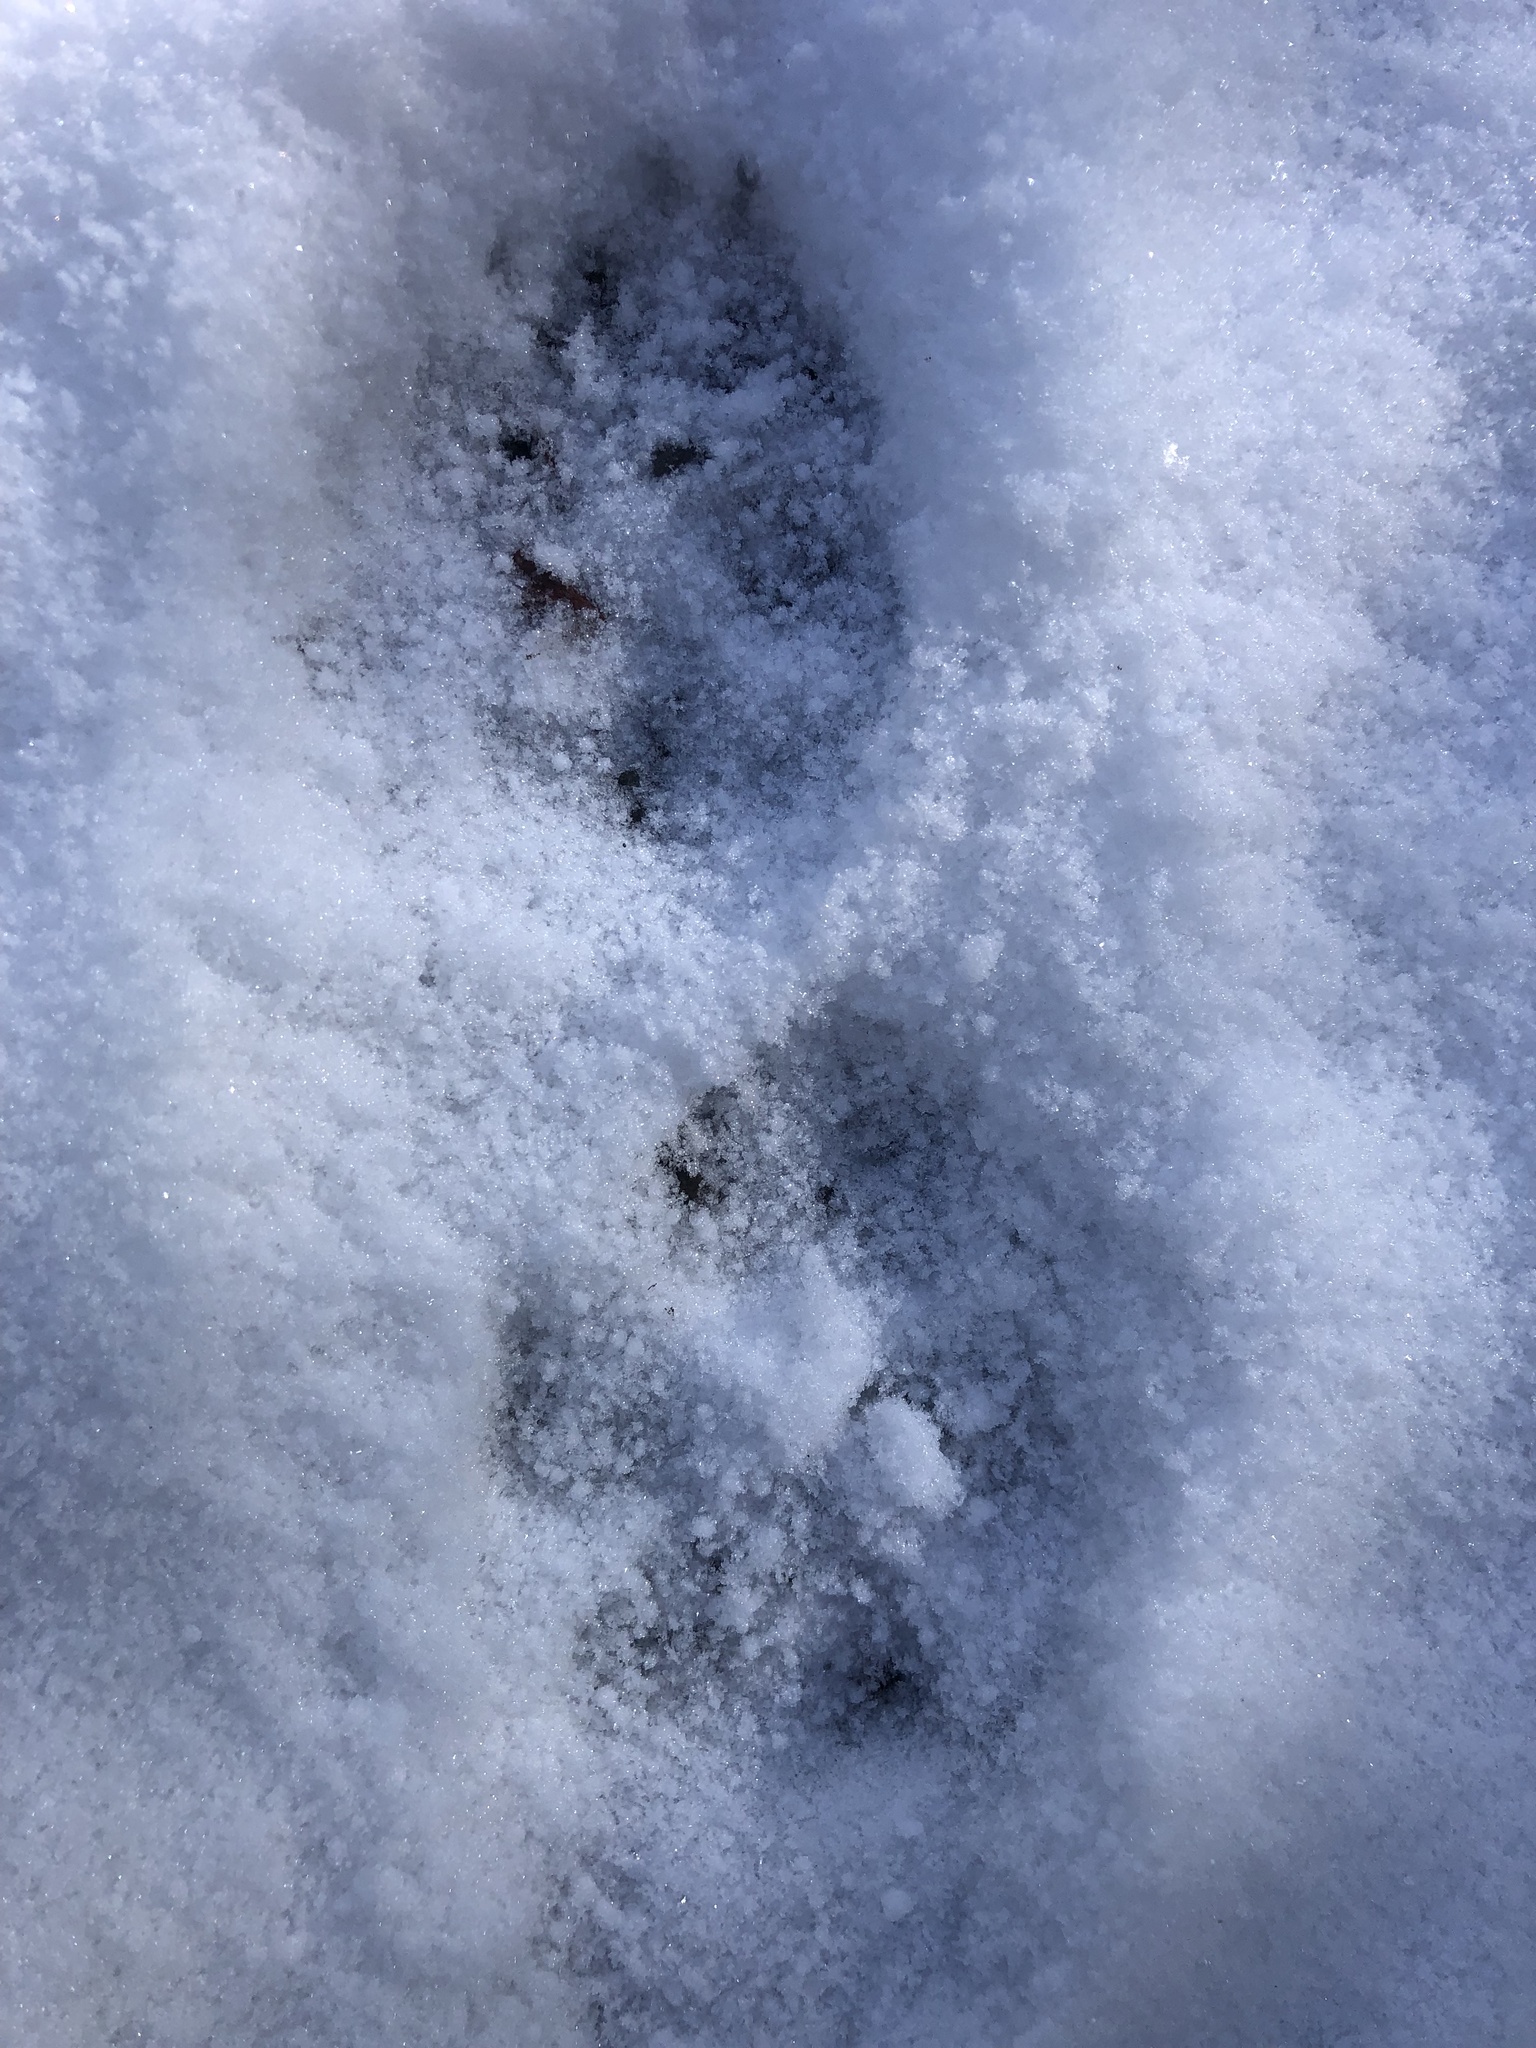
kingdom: Animalia
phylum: Chordata
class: Mammalia
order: Carnivora
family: Canidae
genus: Canis
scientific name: Canis latrans
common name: Coyote
